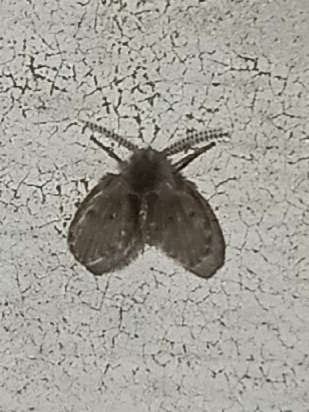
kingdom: Animalia
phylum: Arthropoda
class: Insecta
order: Diptera
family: Psychodidae
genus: Clogmia
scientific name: Clogmia albipunctatus
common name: White-spotted moth fly
